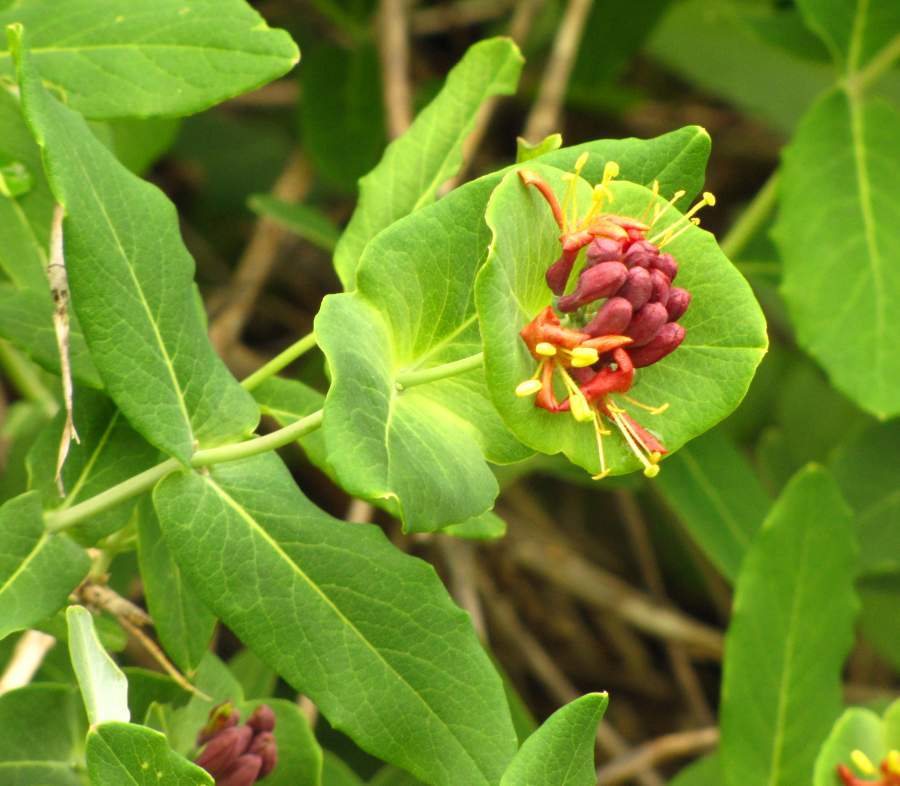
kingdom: Plantae
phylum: Tracheophyta
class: Magnoliopsida
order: Dipsacales
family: Caprifoliaceae
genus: Lonicera
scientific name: Lonicera dioica
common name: Limber honeysuckle
